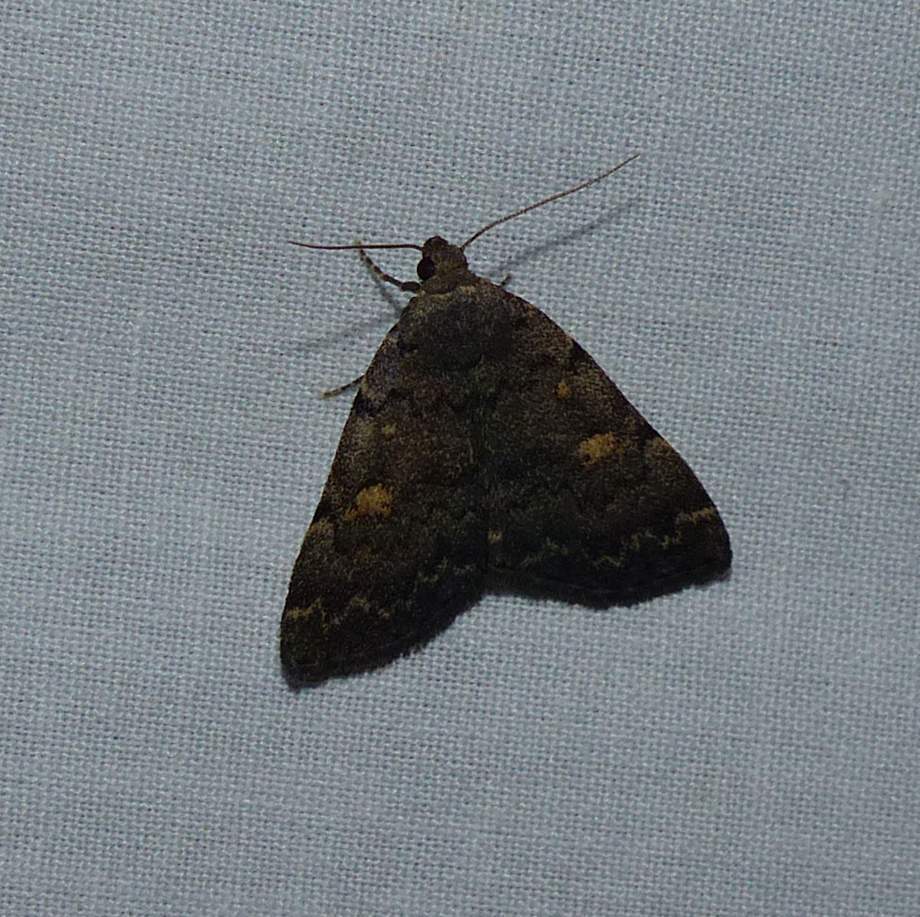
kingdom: Animalia
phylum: Arthropoda
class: Insecta
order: Lepidoptera
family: Erebidae
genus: Idia
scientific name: Idia aemula
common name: Common idia moth
